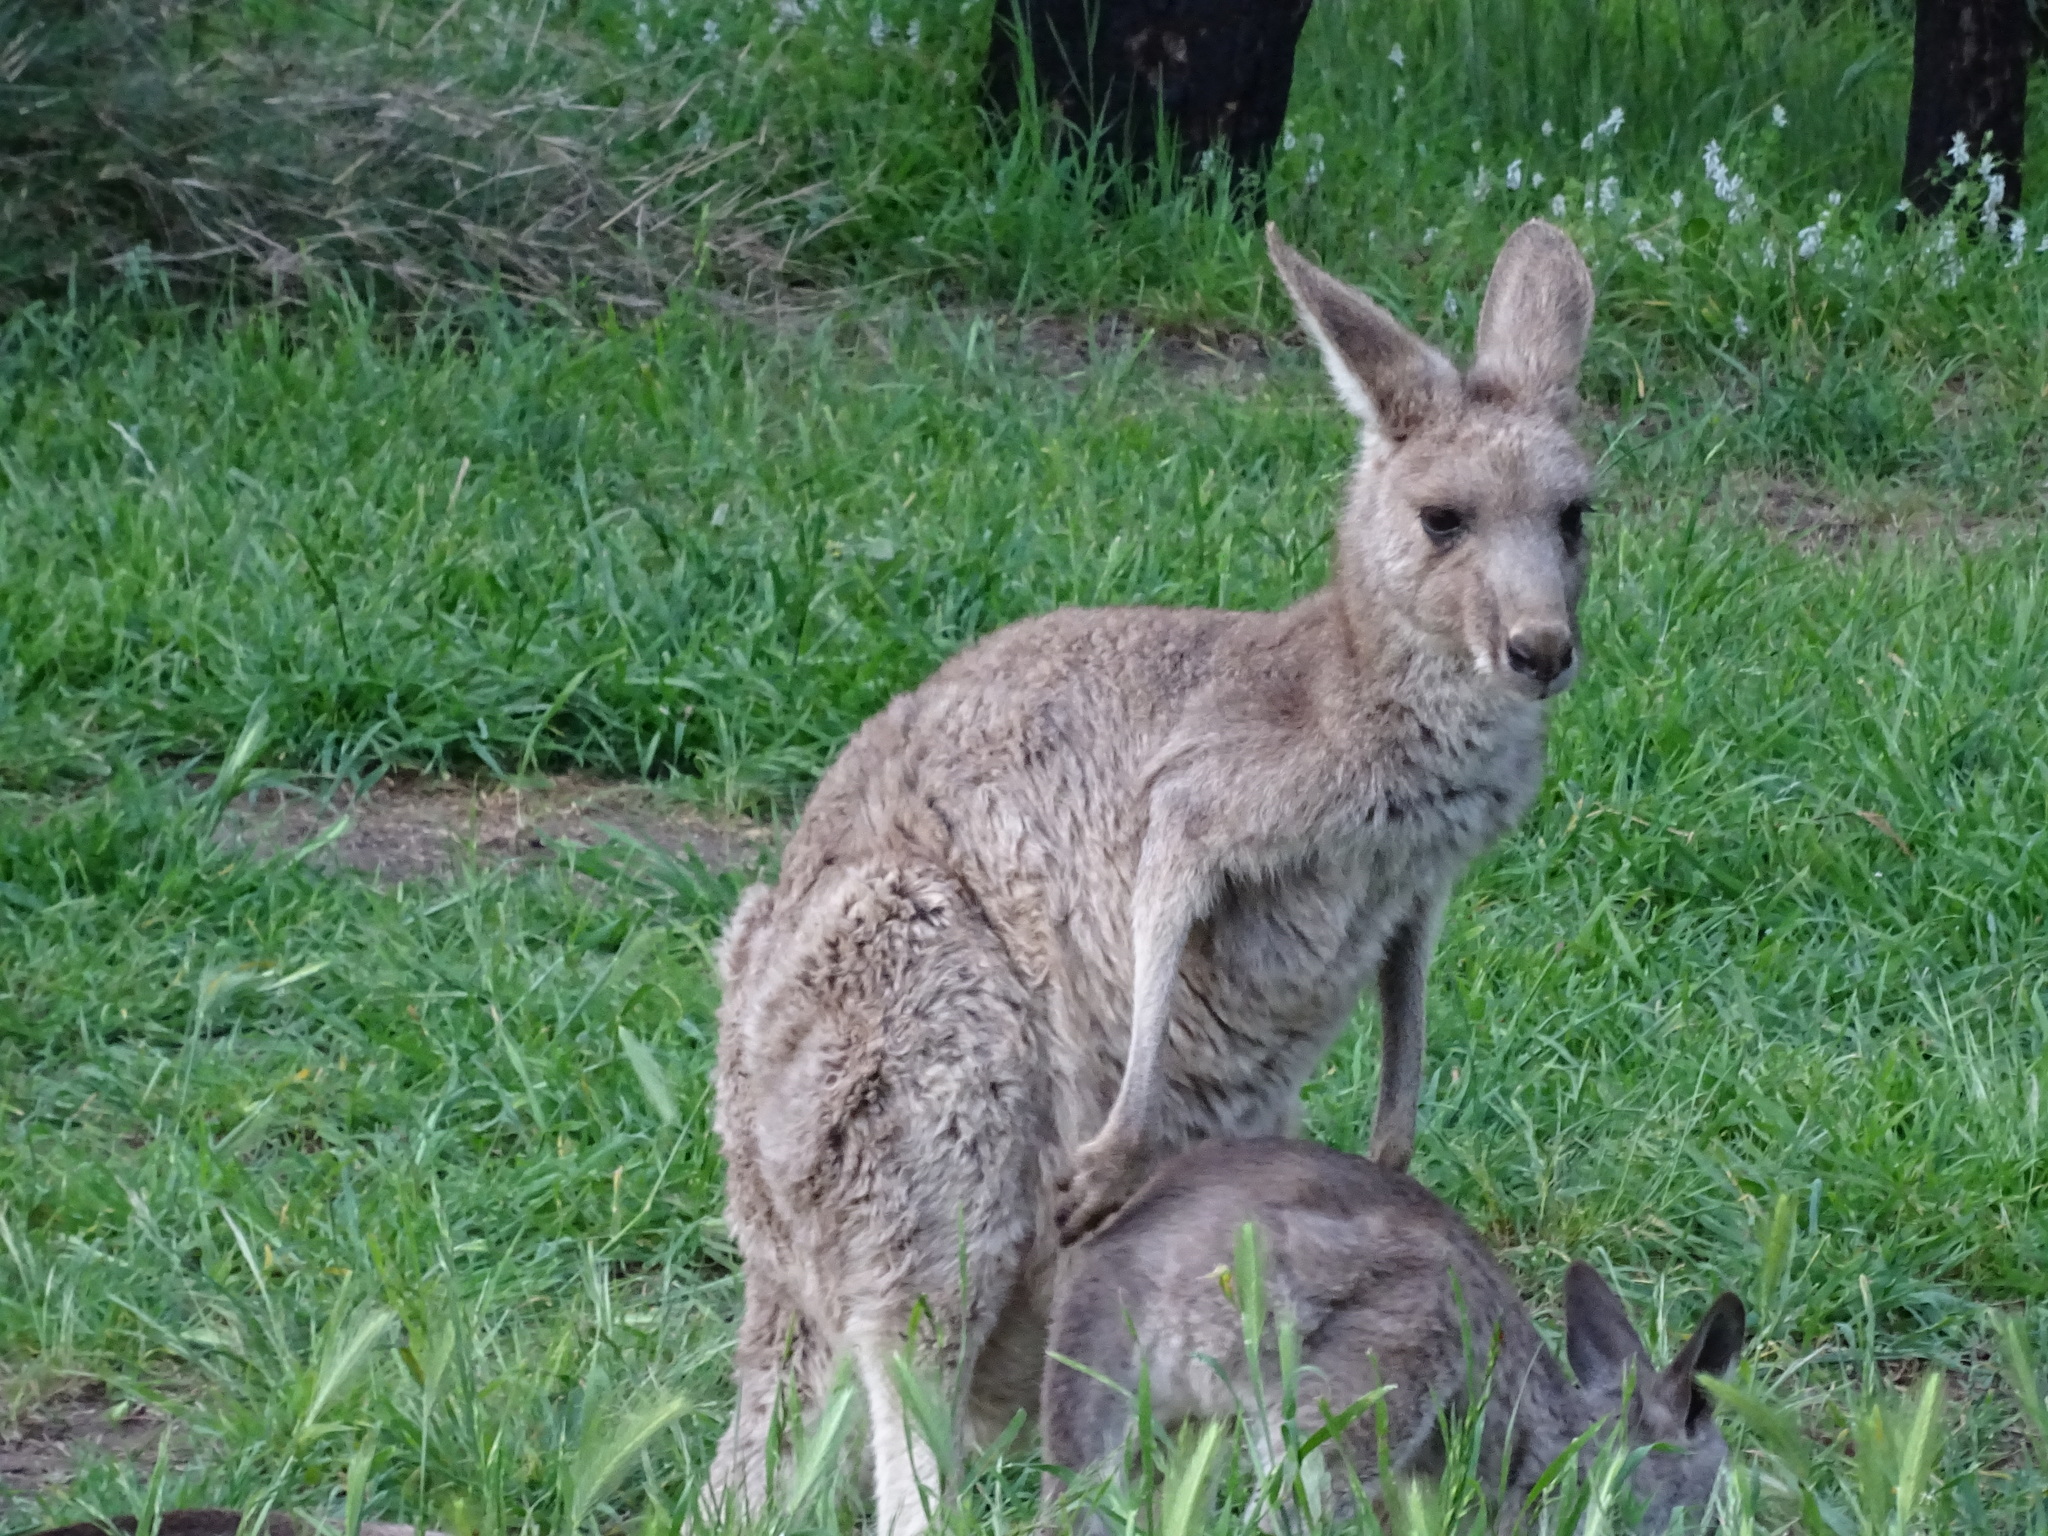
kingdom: Animalia
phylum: Chordata
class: Mammalia
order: Diprotodontia
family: Macropodidae
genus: Macropus
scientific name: Macropus giganteus
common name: Eastern grey kangaroo
